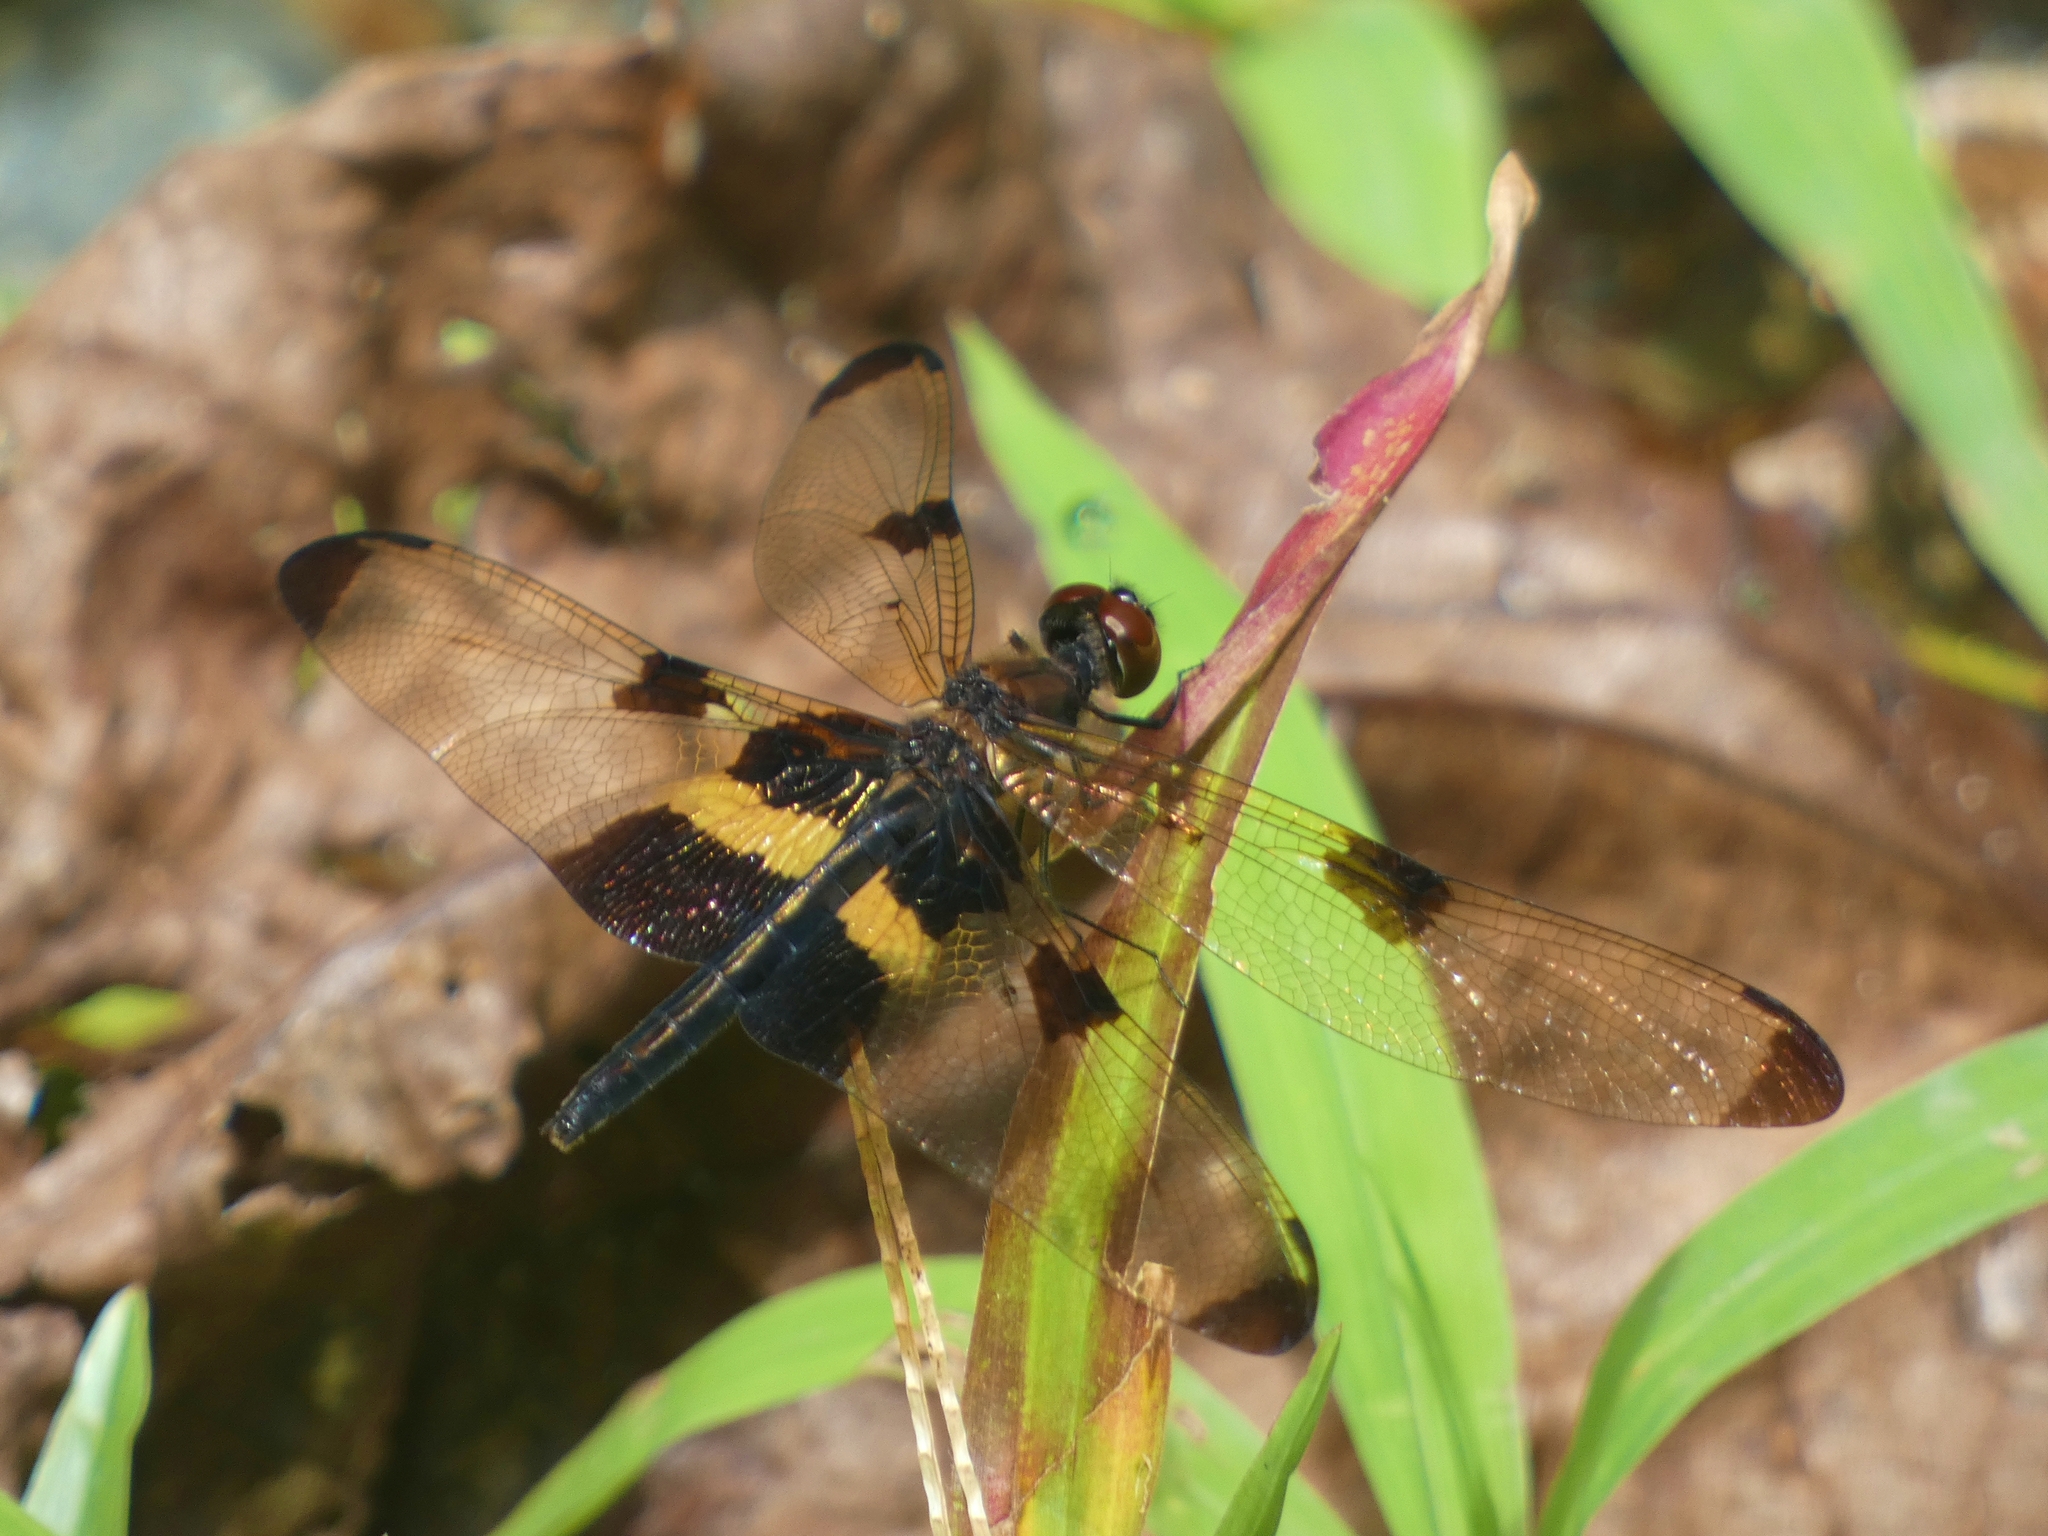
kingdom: Animalia
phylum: Arthropoda
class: Insecta
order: Odonata
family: Libellulidae
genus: Rhyothemis
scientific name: Rhyothemis phyllis
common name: Yellow-barred flutterer
